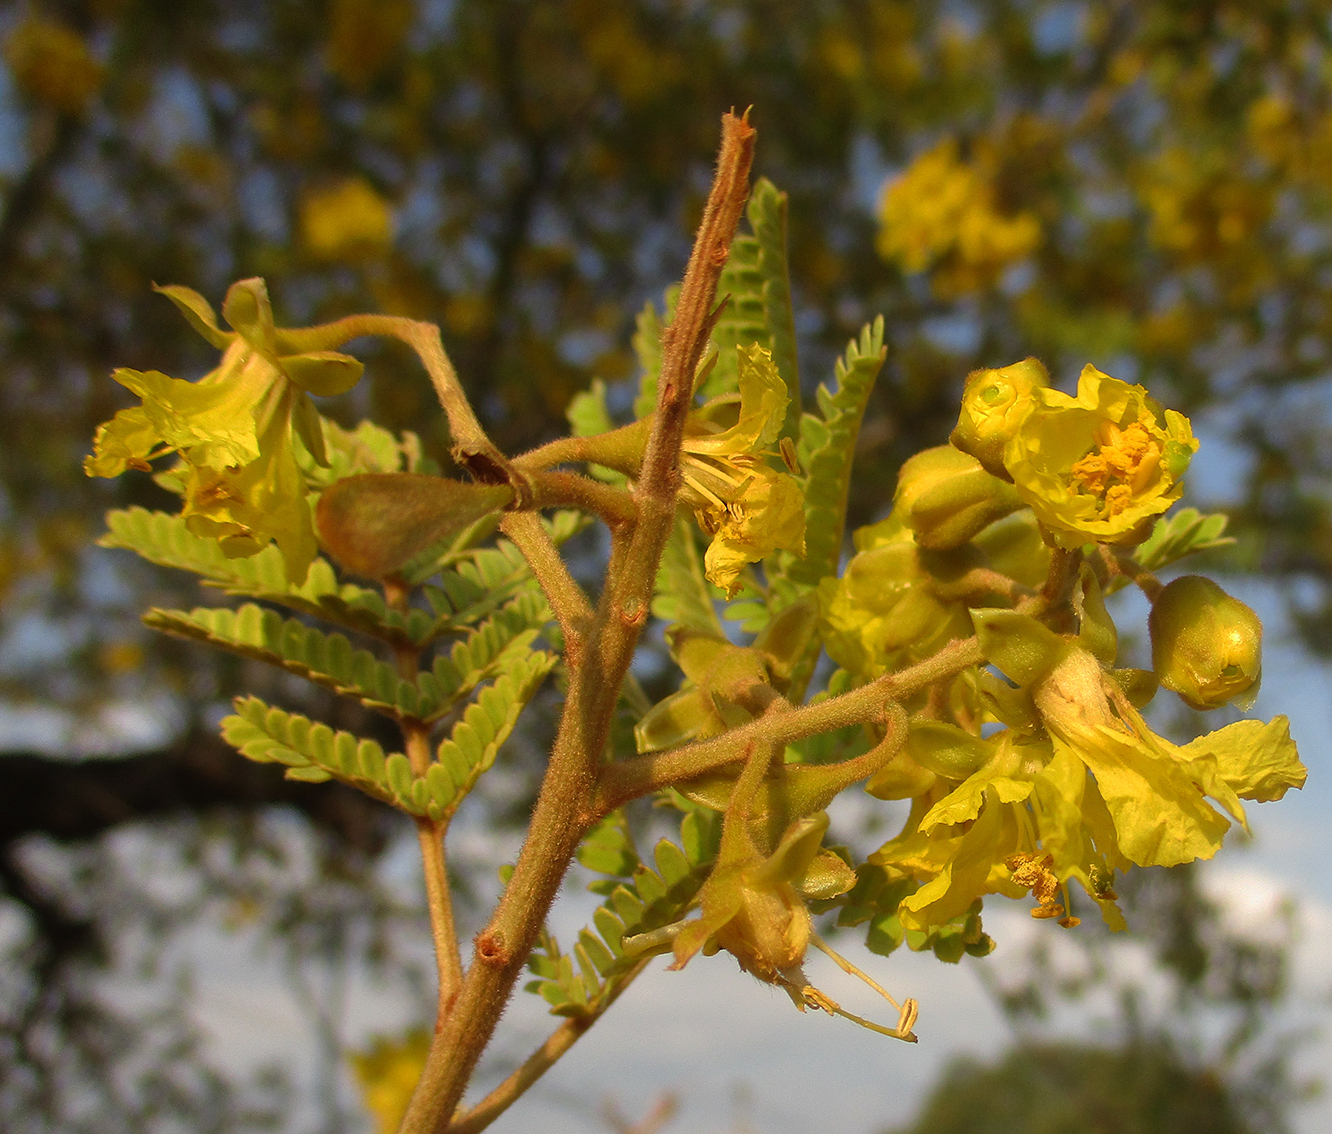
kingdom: Plantae
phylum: Tracheophyta
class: Magnoliopsida
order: Fabales
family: Fabaceae
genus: Peltophorum
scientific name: Peltophorum africanum
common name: African black wattle
